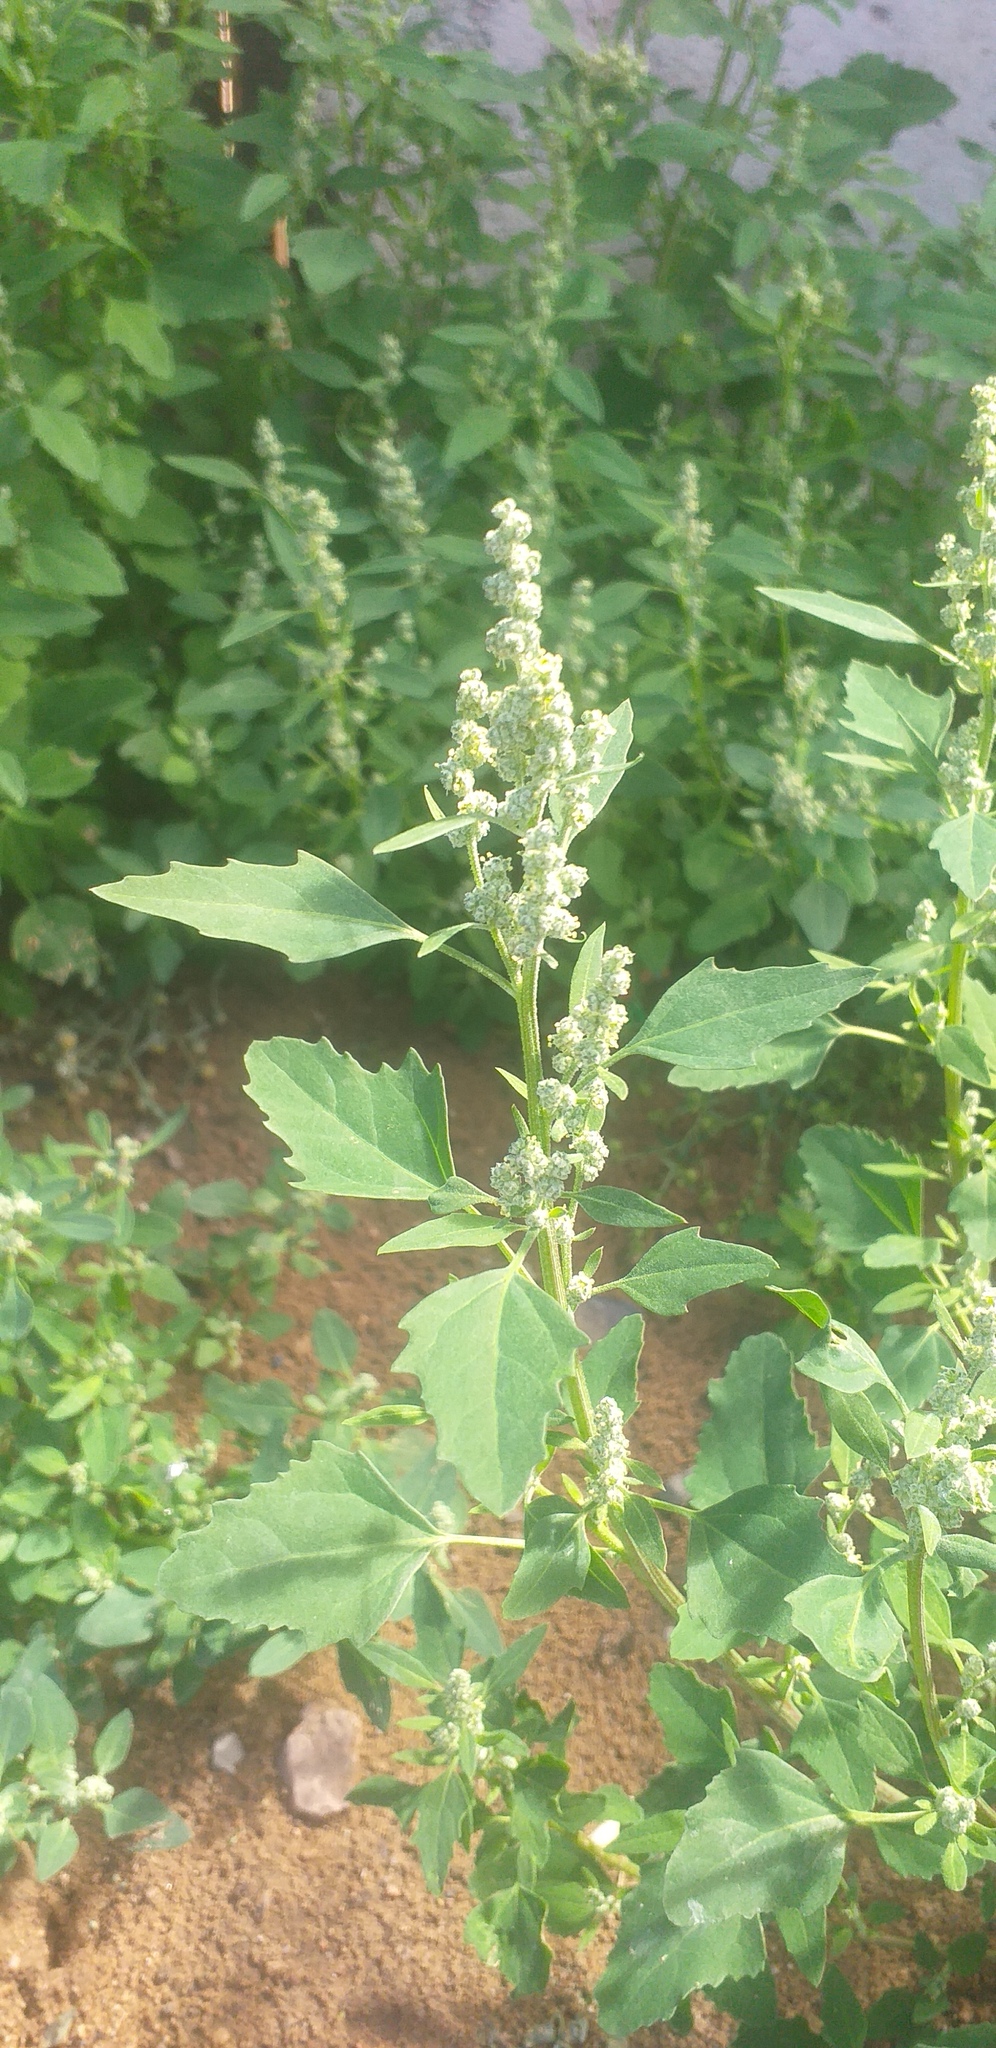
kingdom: Plantae
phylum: Tracheophyta
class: Magnoliopsida
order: Caryophyllales
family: Amaranthaceae
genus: Chenopodium
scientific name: Chenopodium karoi
